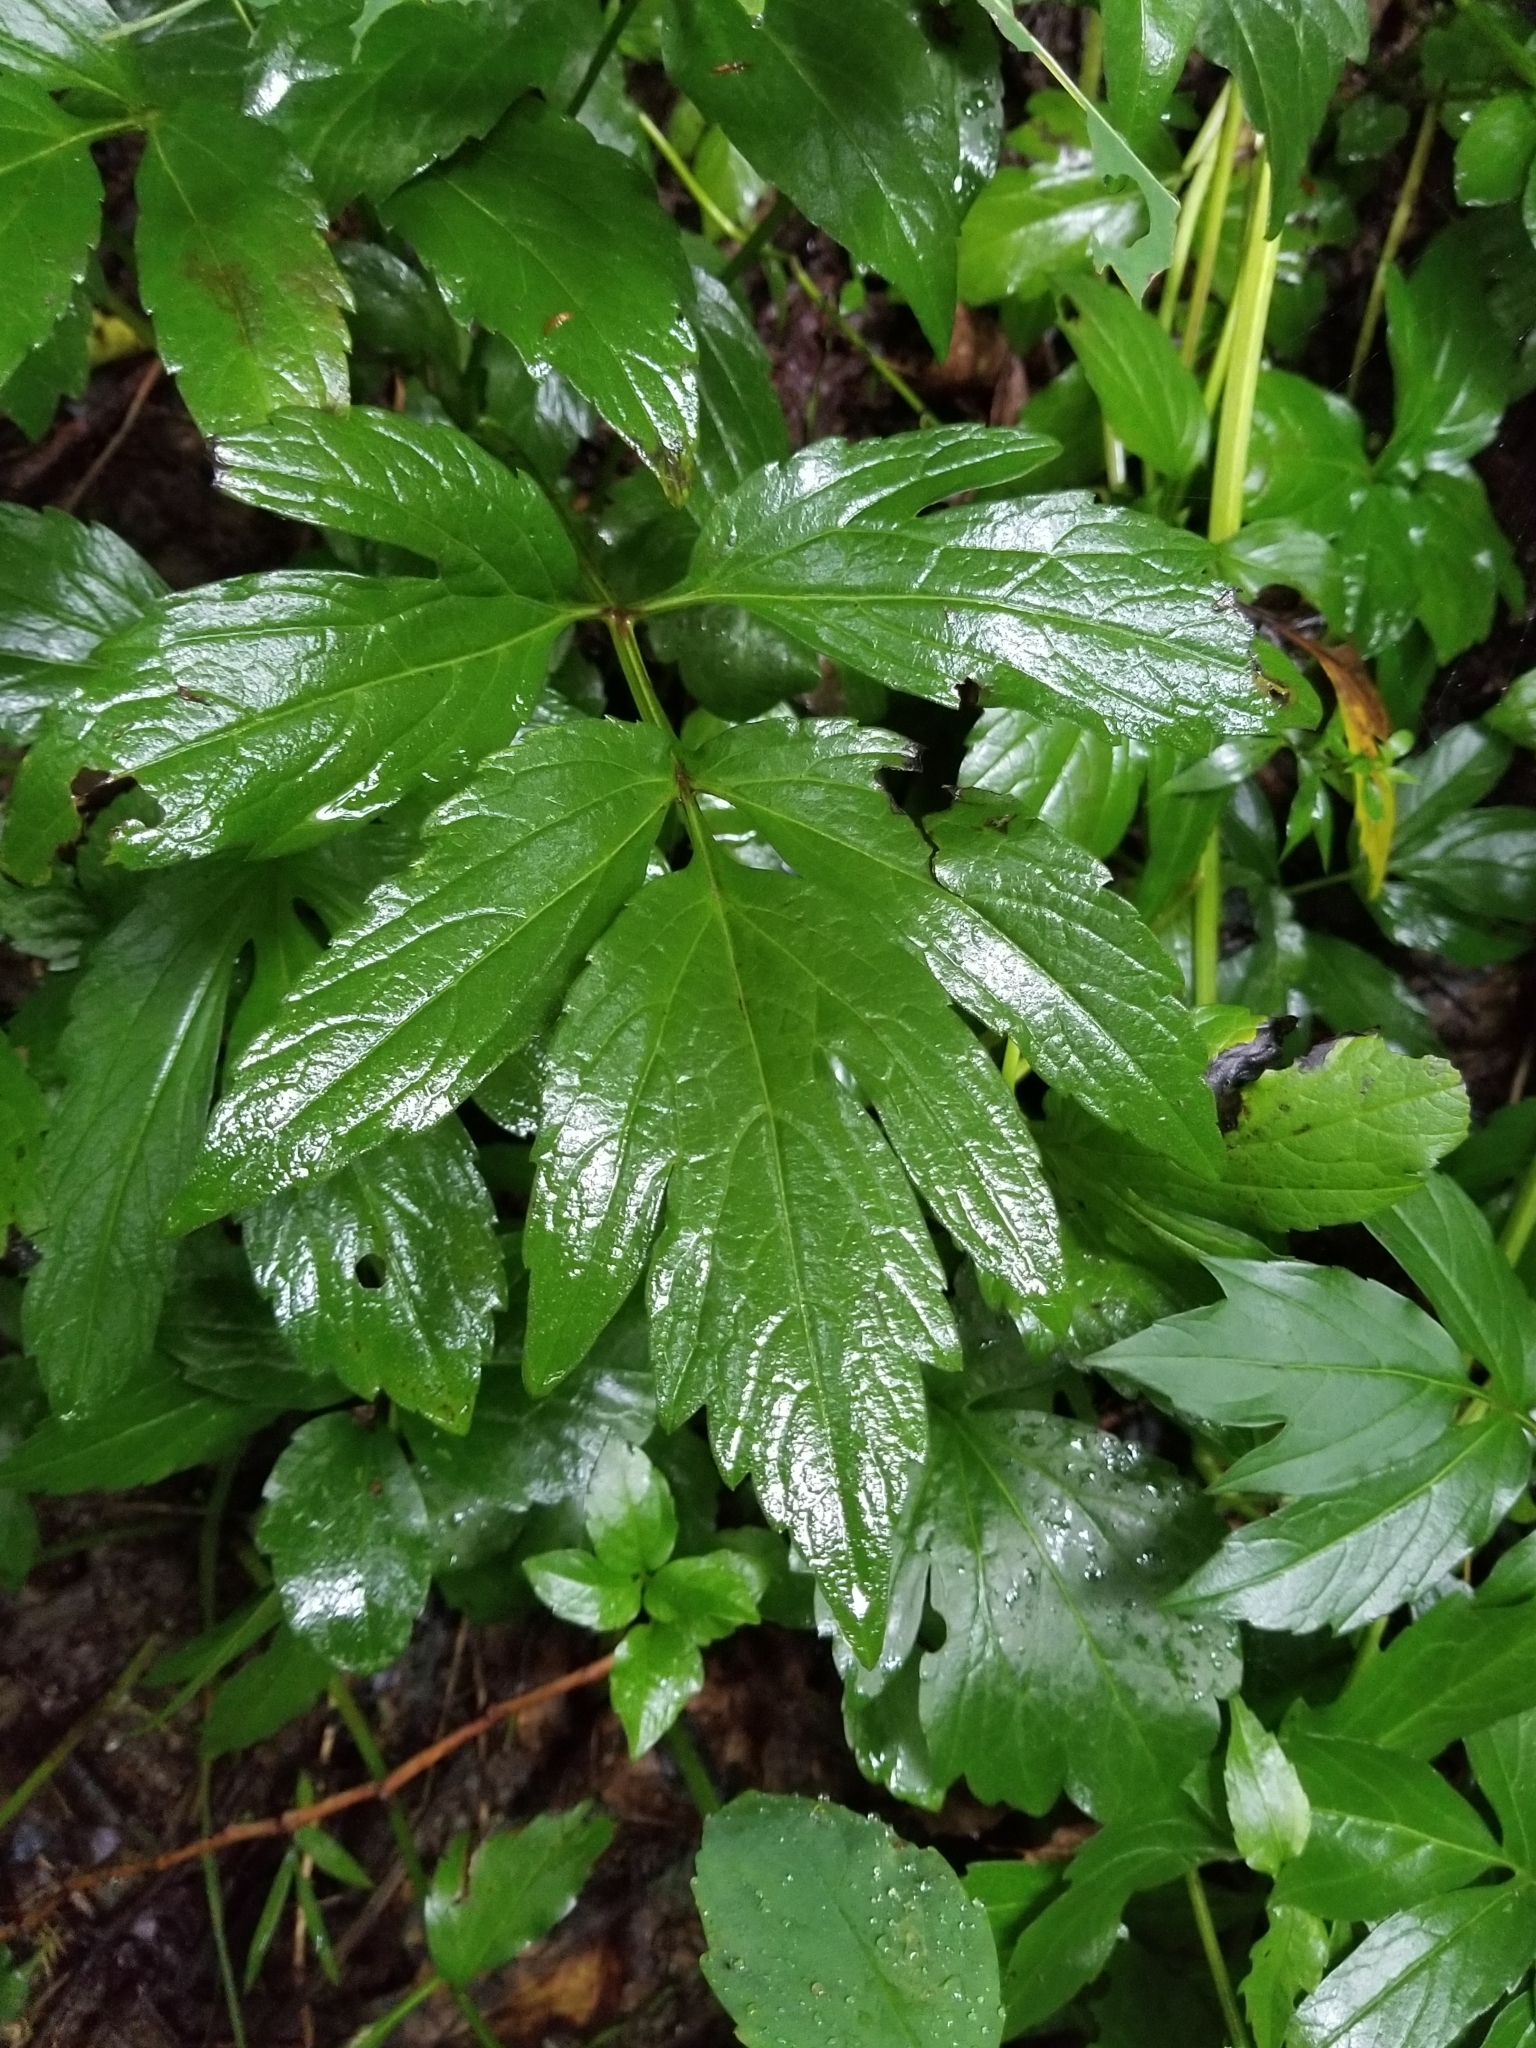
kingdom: Plantae
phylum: Tracheophyta
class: Magnoliopsida
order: Asterales
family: Asteraceae
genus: Rudbeckia
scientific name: Rudbeckia laciniata
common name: Coneflower
